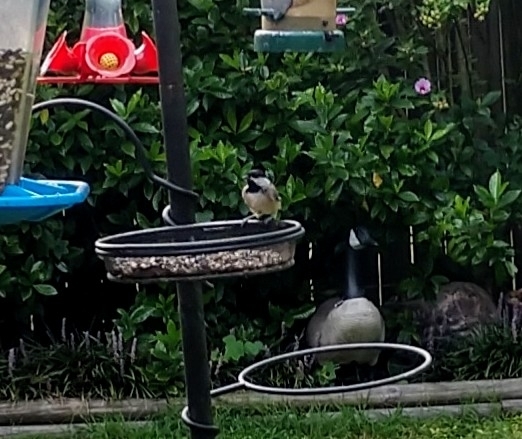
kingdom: Animalia
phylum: Chordata
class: Aves
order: Passeriformes
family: Paridae
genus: Poecile
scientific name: Poecile carolinensis
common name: Carolina chickadee
